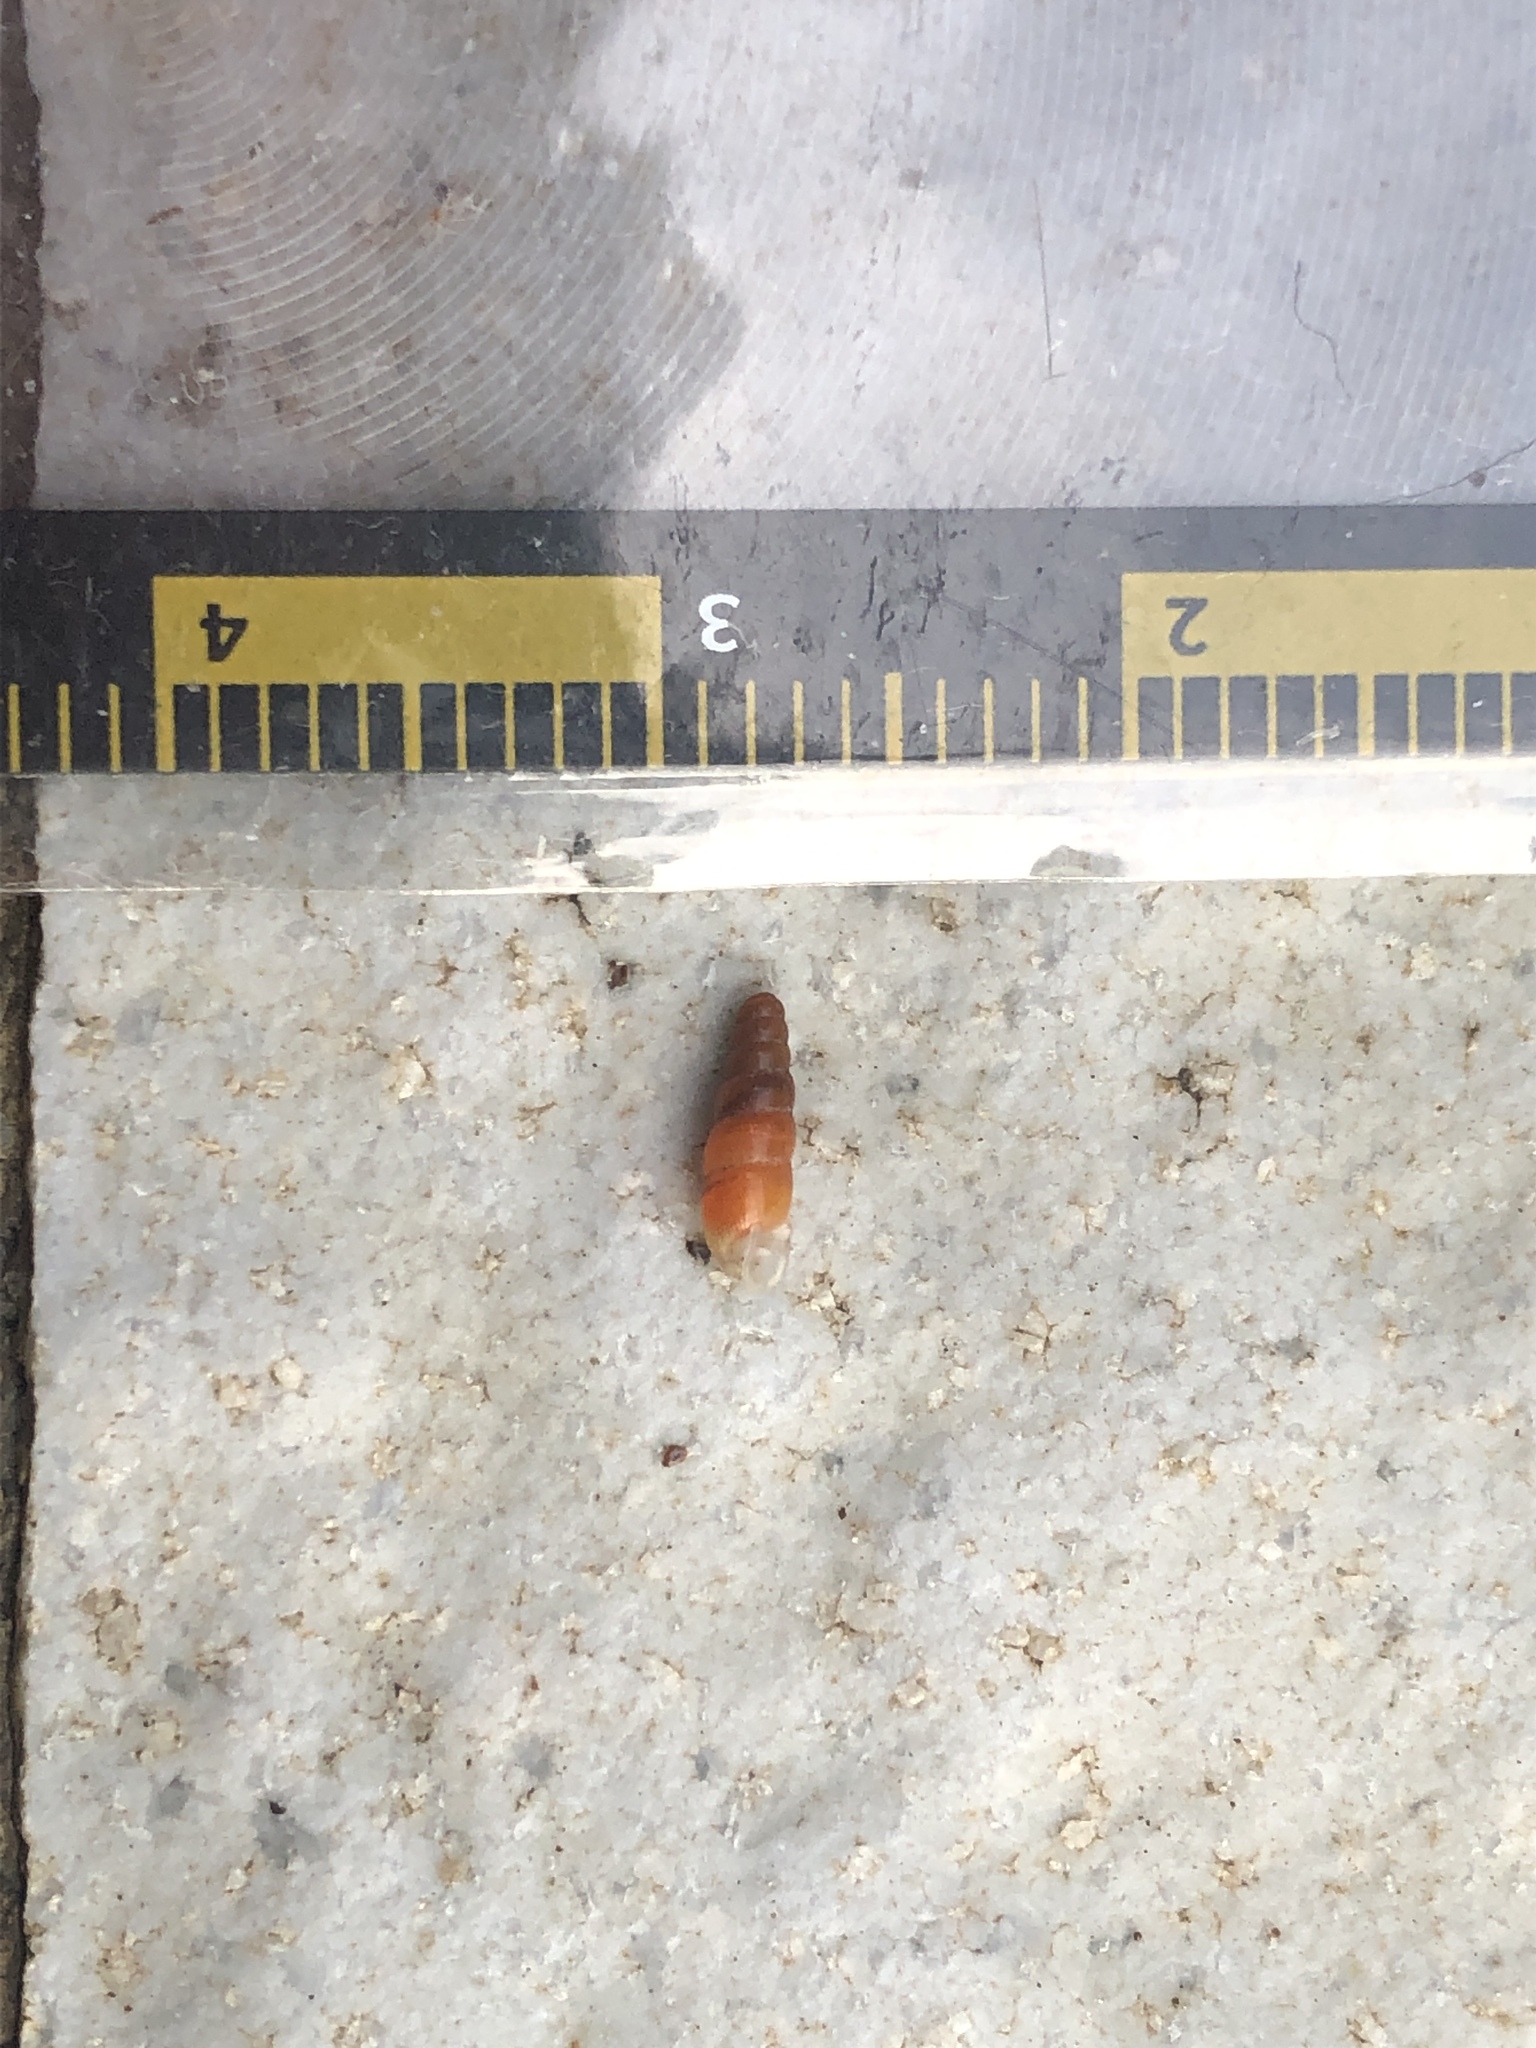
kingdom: Animalia
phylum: Mollusca
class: Gastropoda
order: Stylommatophora
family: Streptaxidae
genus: Gulella
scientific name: Gulella bicolor
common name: Snail
